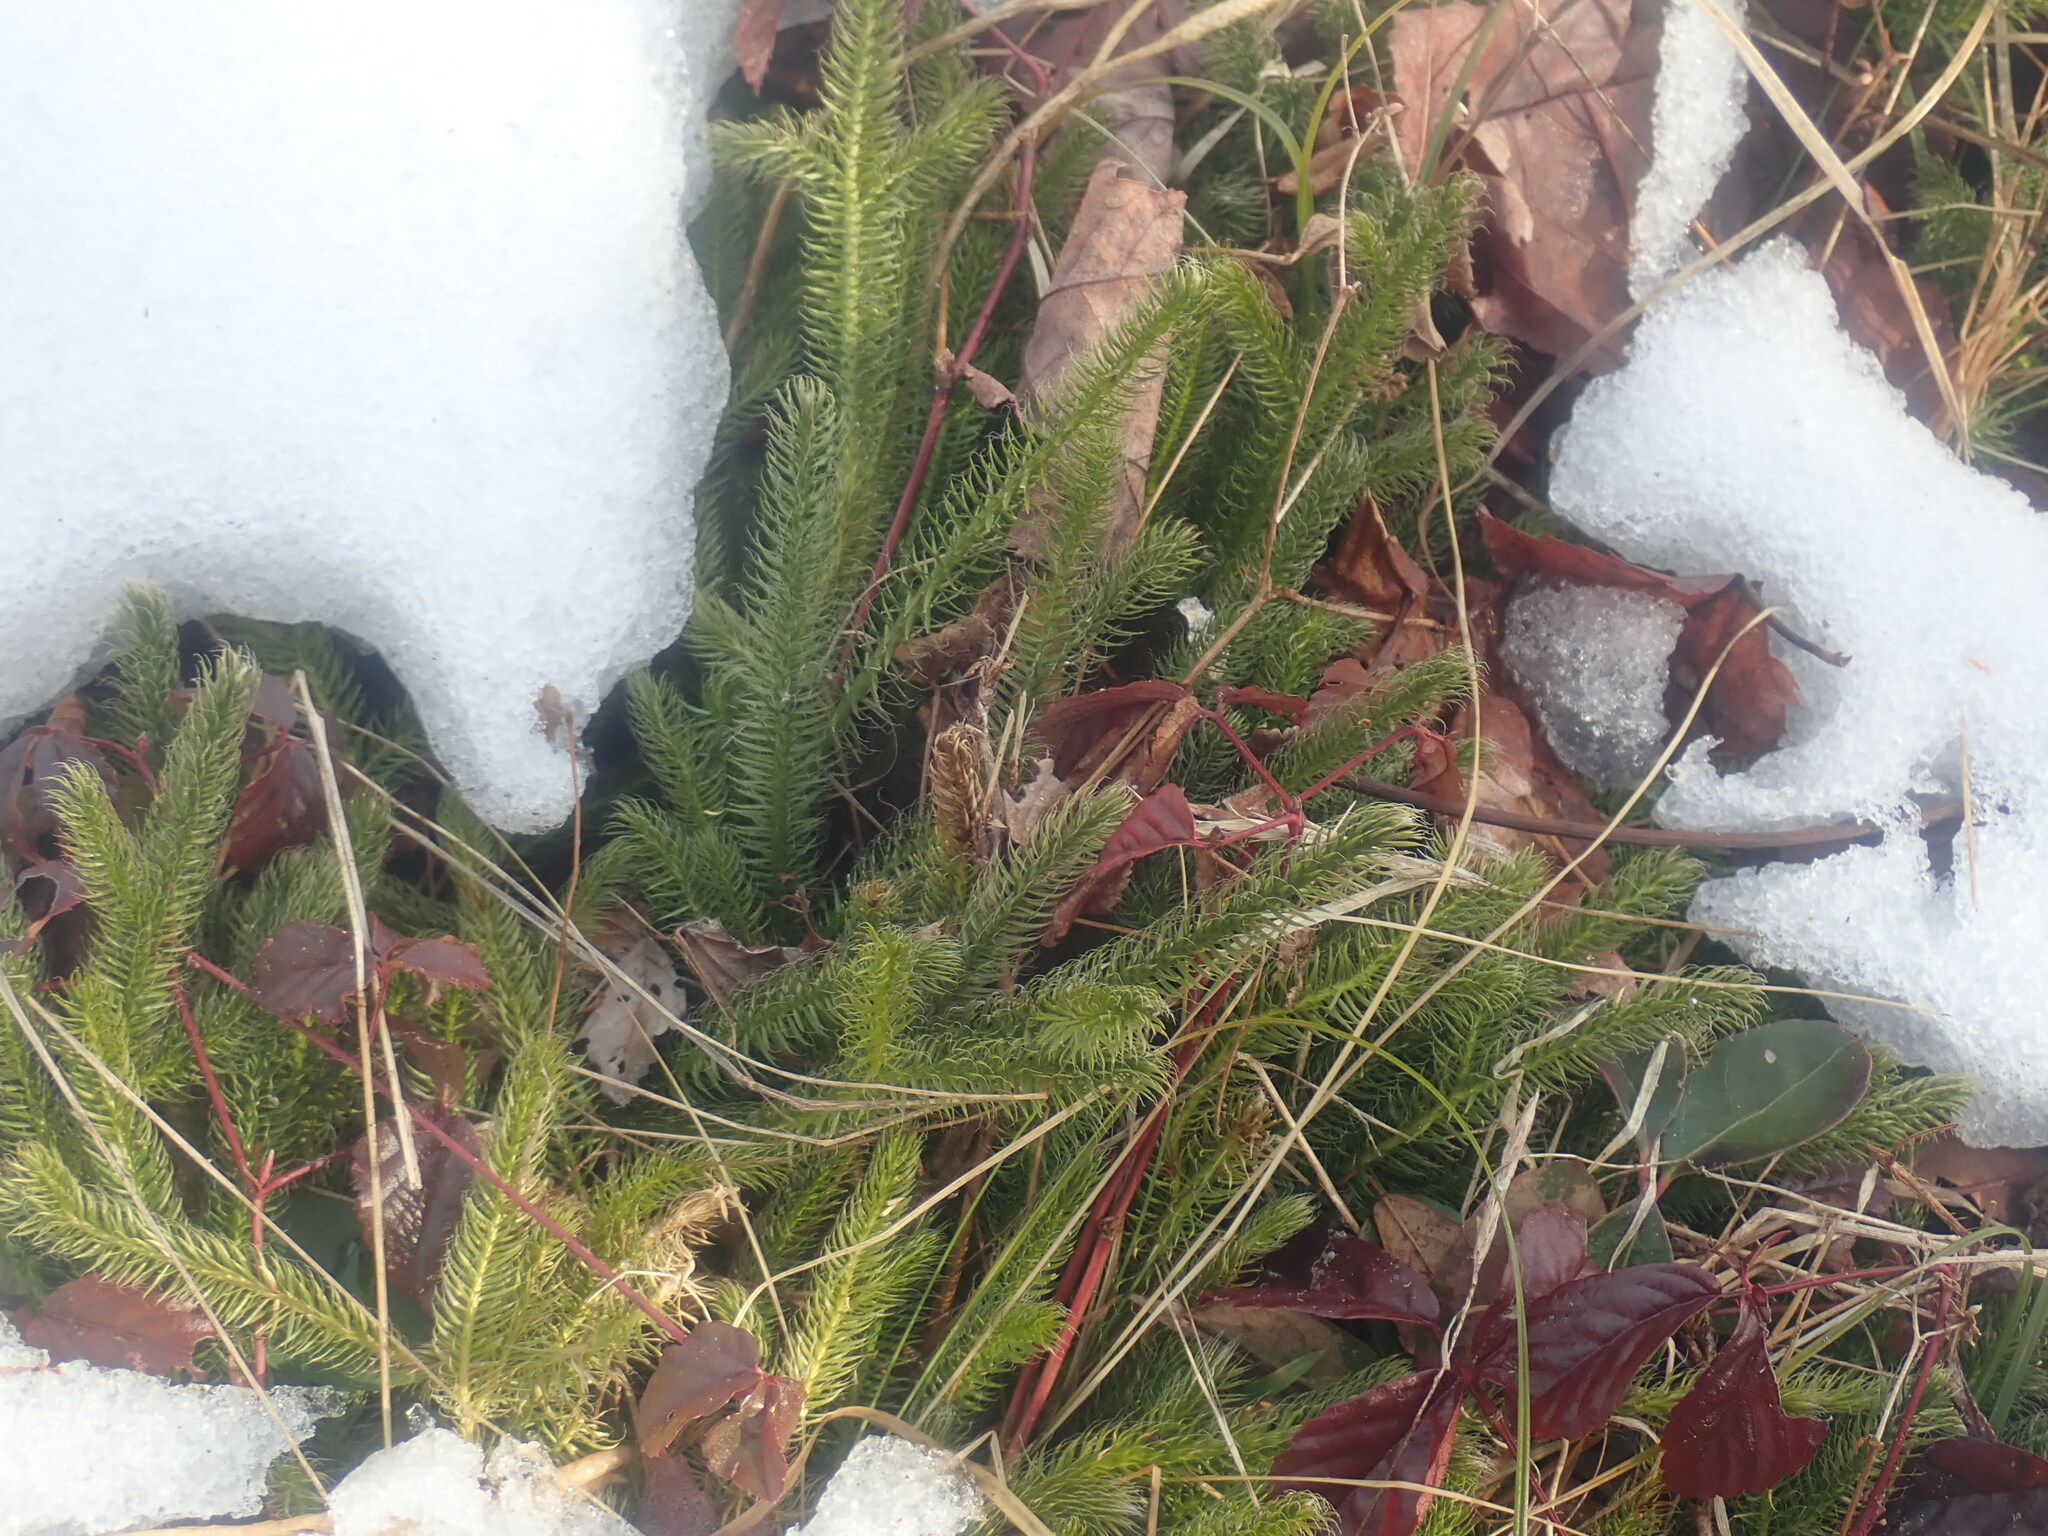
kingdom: Plantae
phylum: Tracheophyta
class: Lycopodiopsida
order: Lycopodiales
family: Lycopodiaceae
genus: Lycopodium
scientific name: Lycopodium clavatum
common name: Stag's-horn clubmoss
